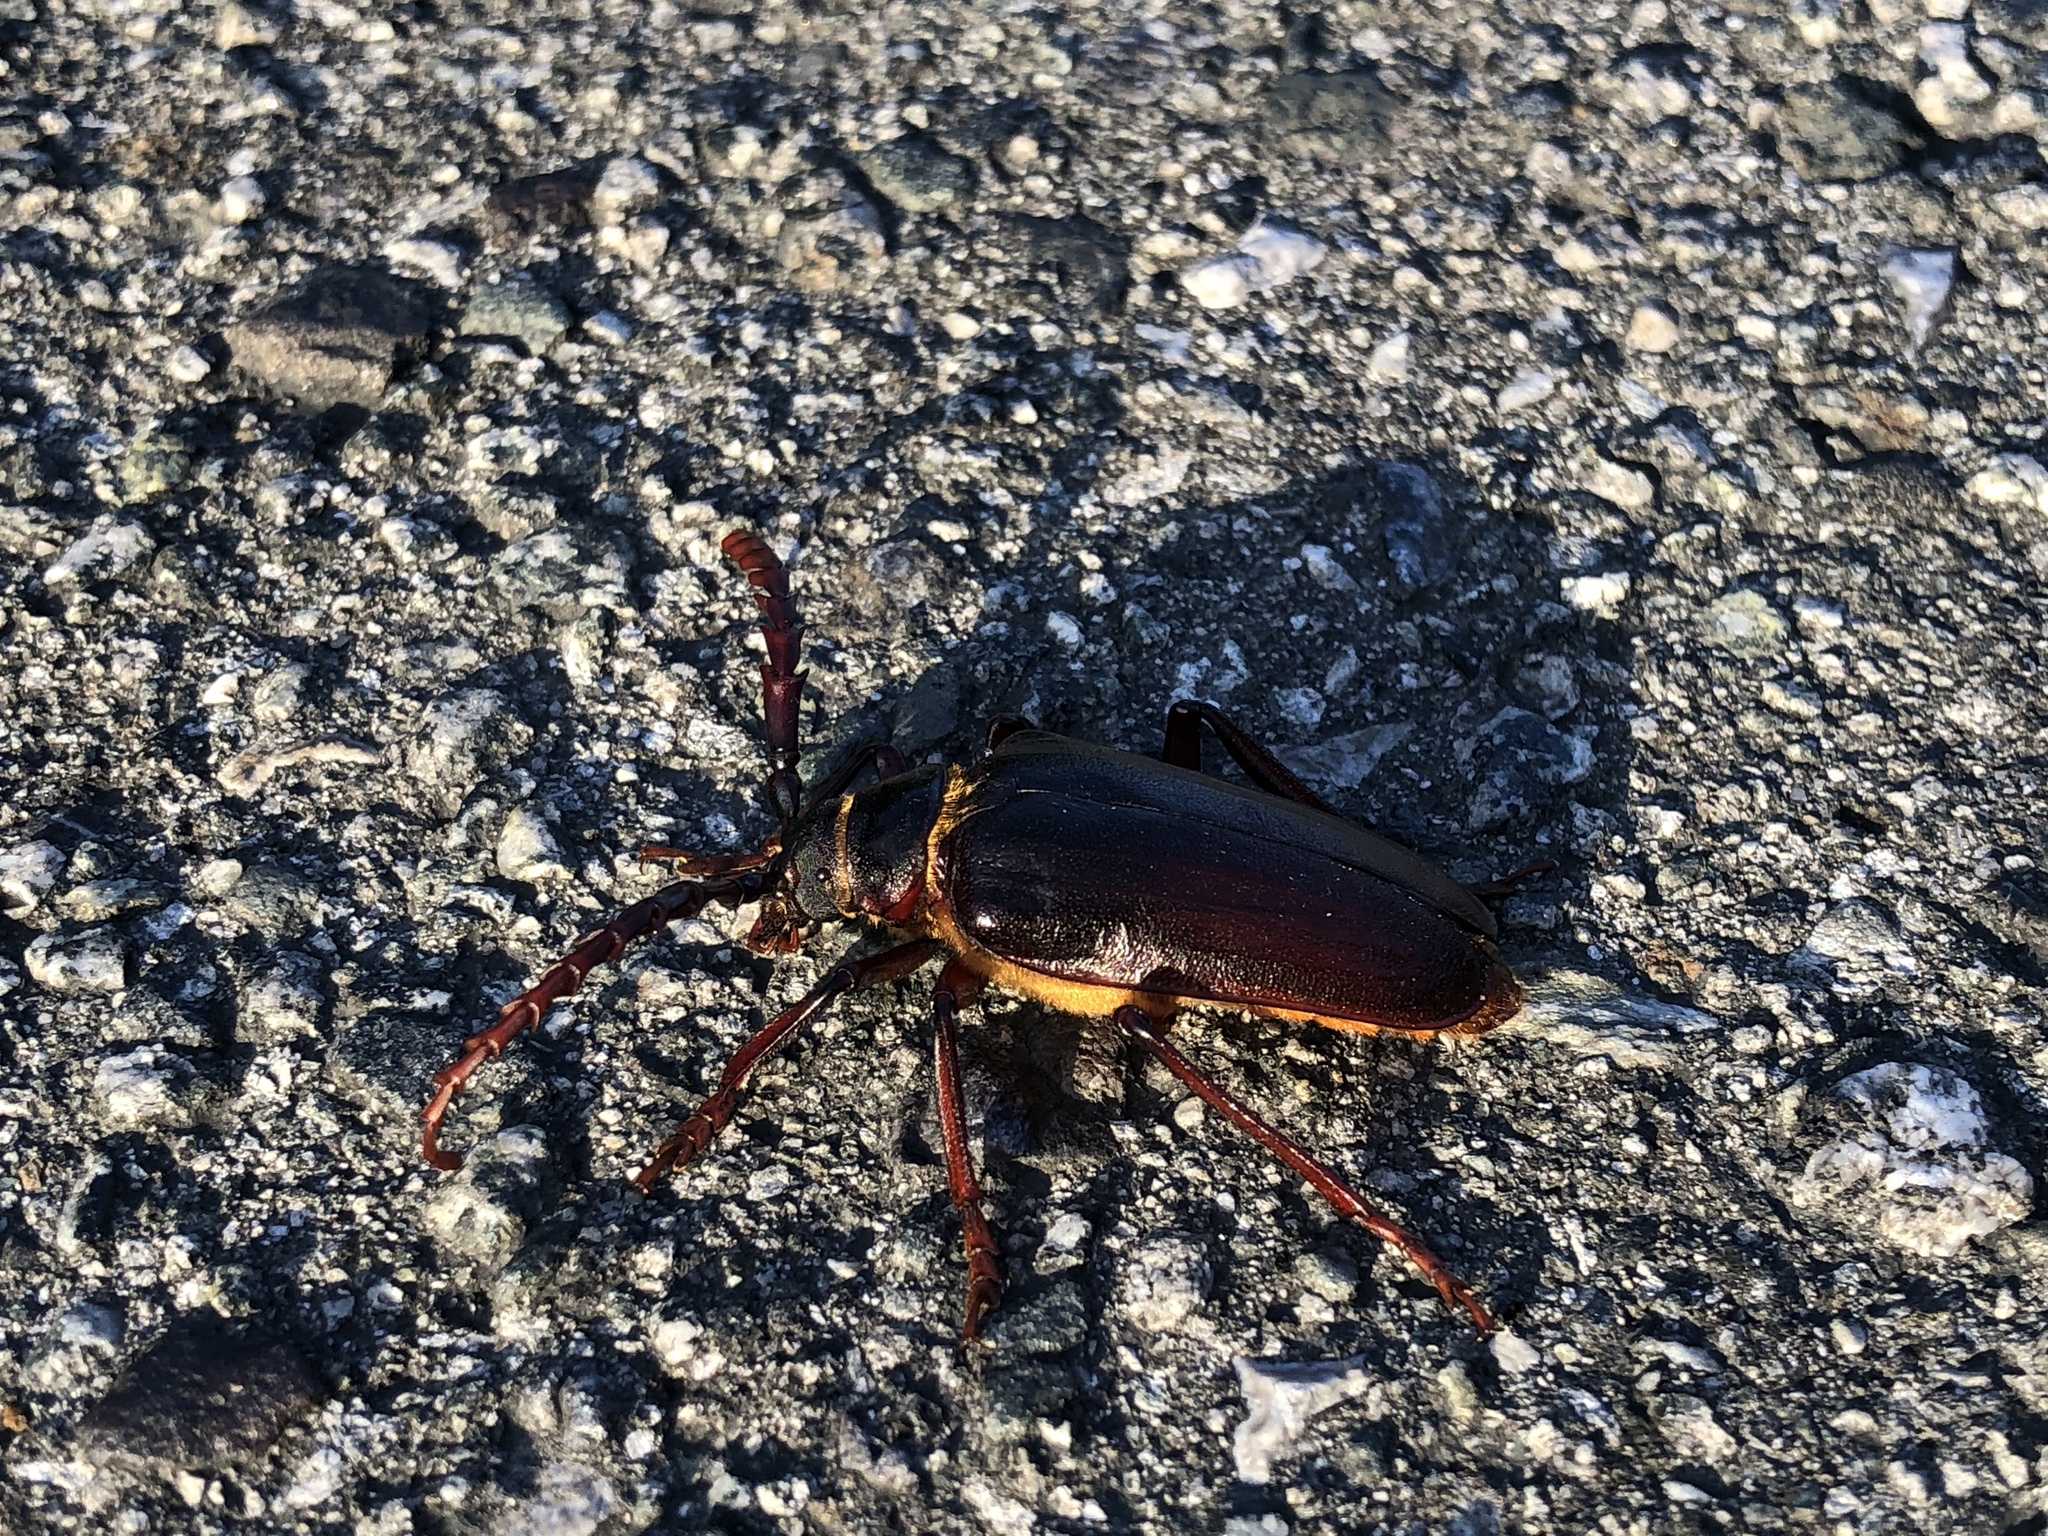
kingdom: Animalia
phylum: Arthropoda
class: Insecta
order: Coleoptera
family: Cerambycidae
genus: Prionus
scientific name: Prionus californicus
